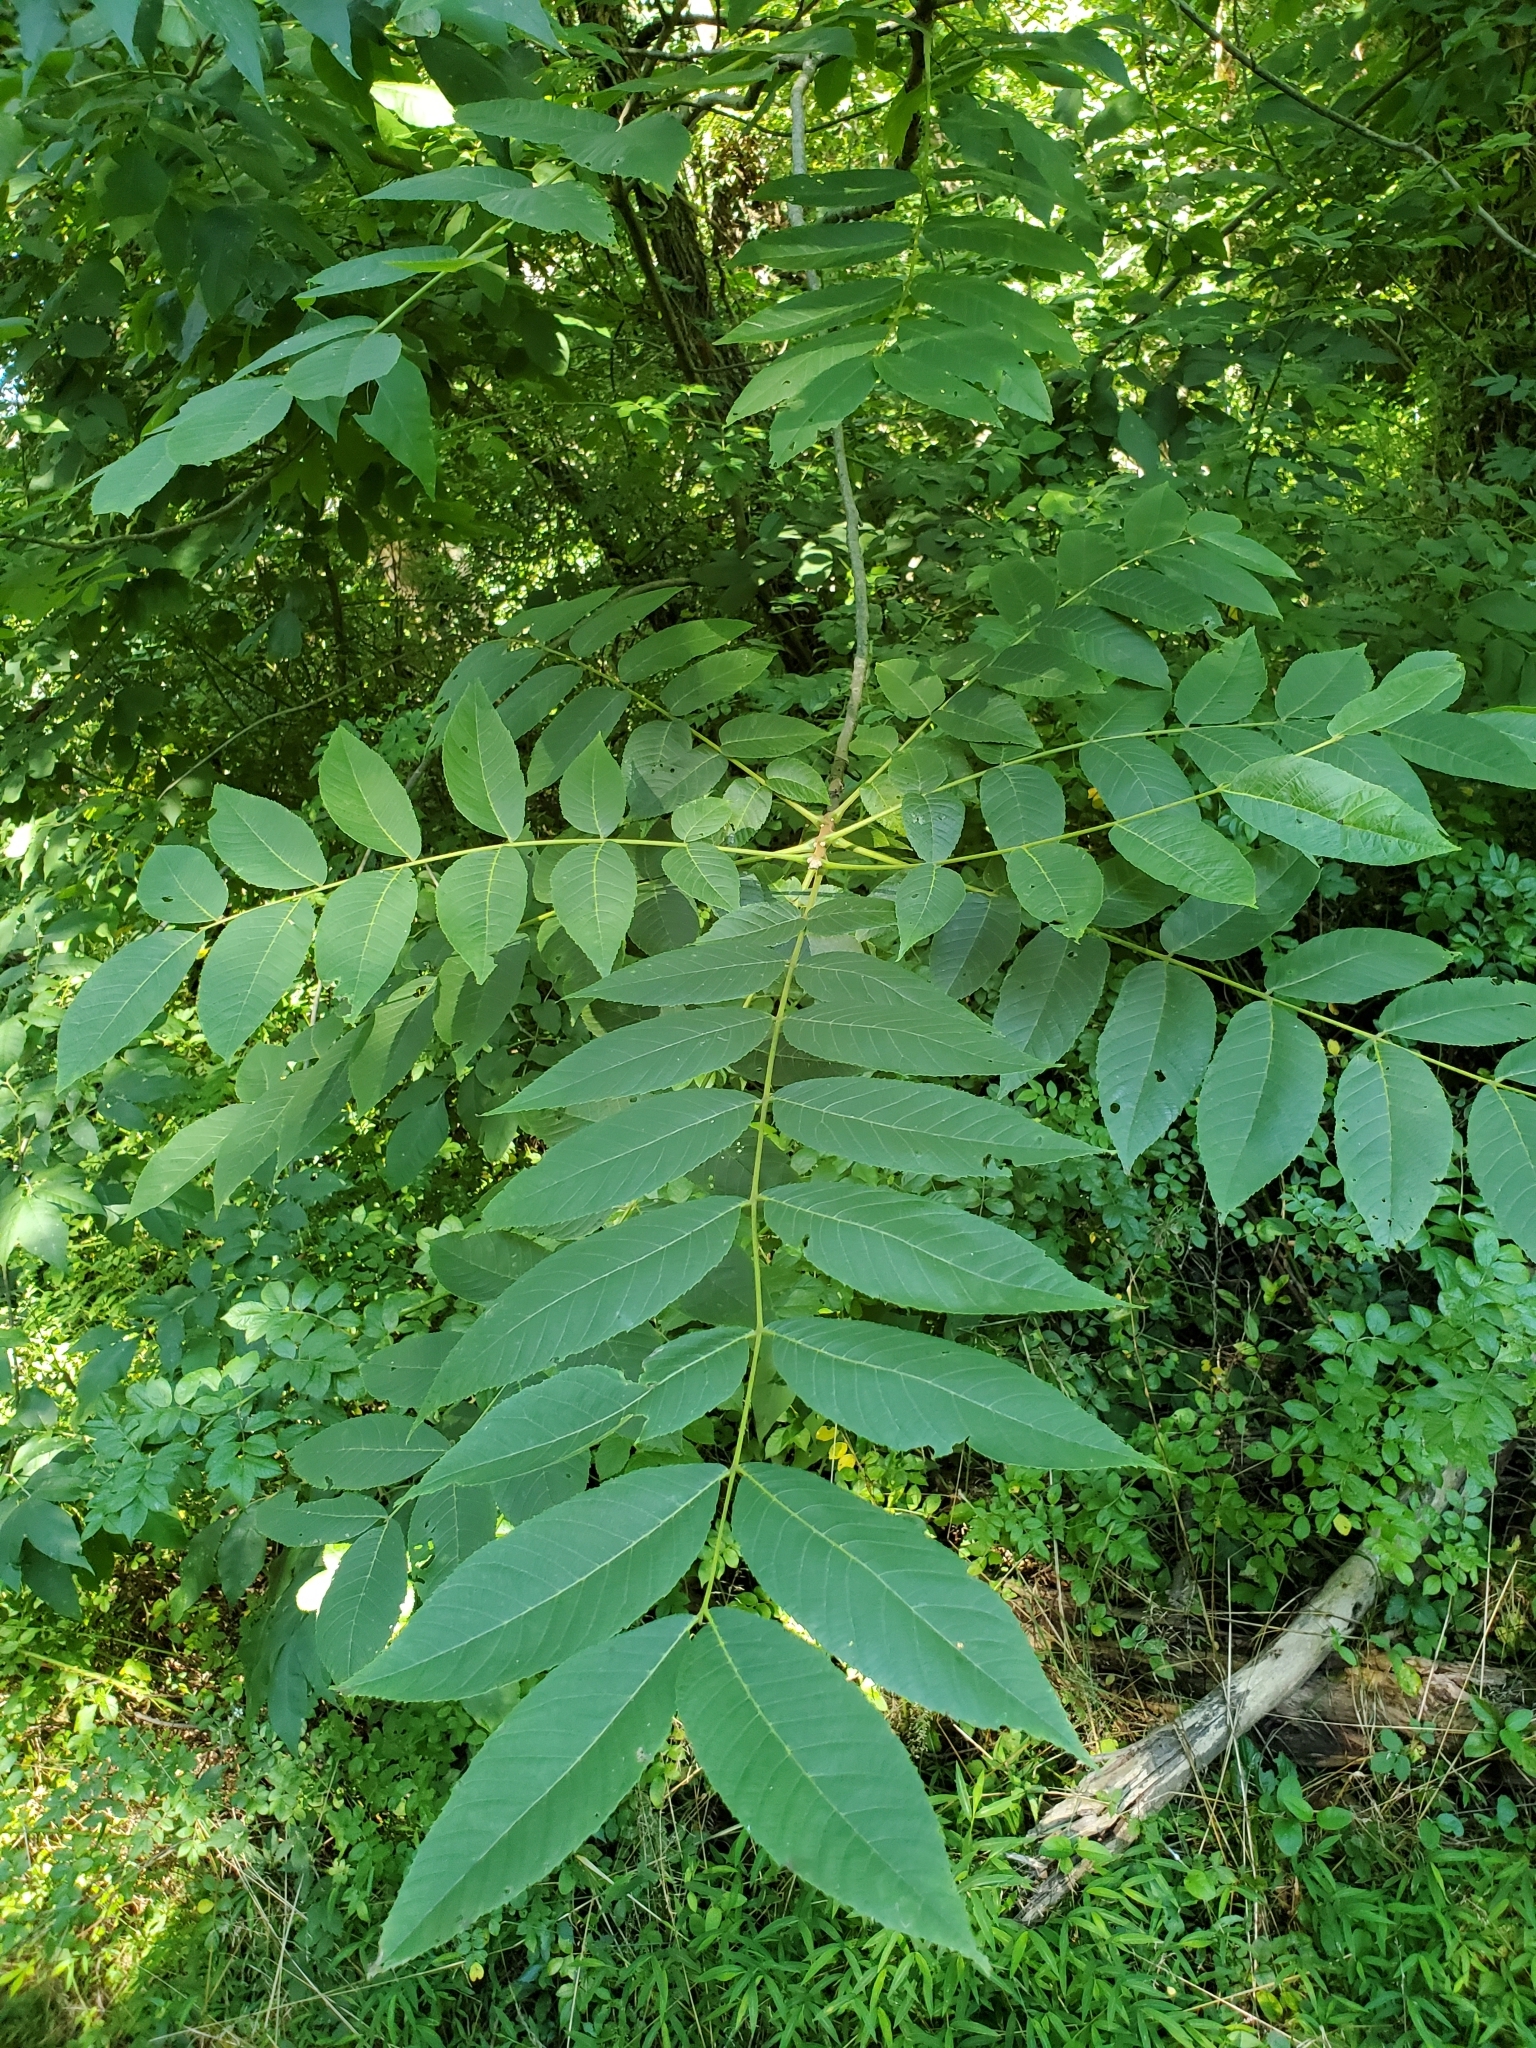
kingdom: Plantae
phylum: Tracheophyta
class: Magnoliopsida
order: Fagales
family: Juglandaceae
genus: Juglans
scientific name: Juglans nigra
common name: Black walnut
